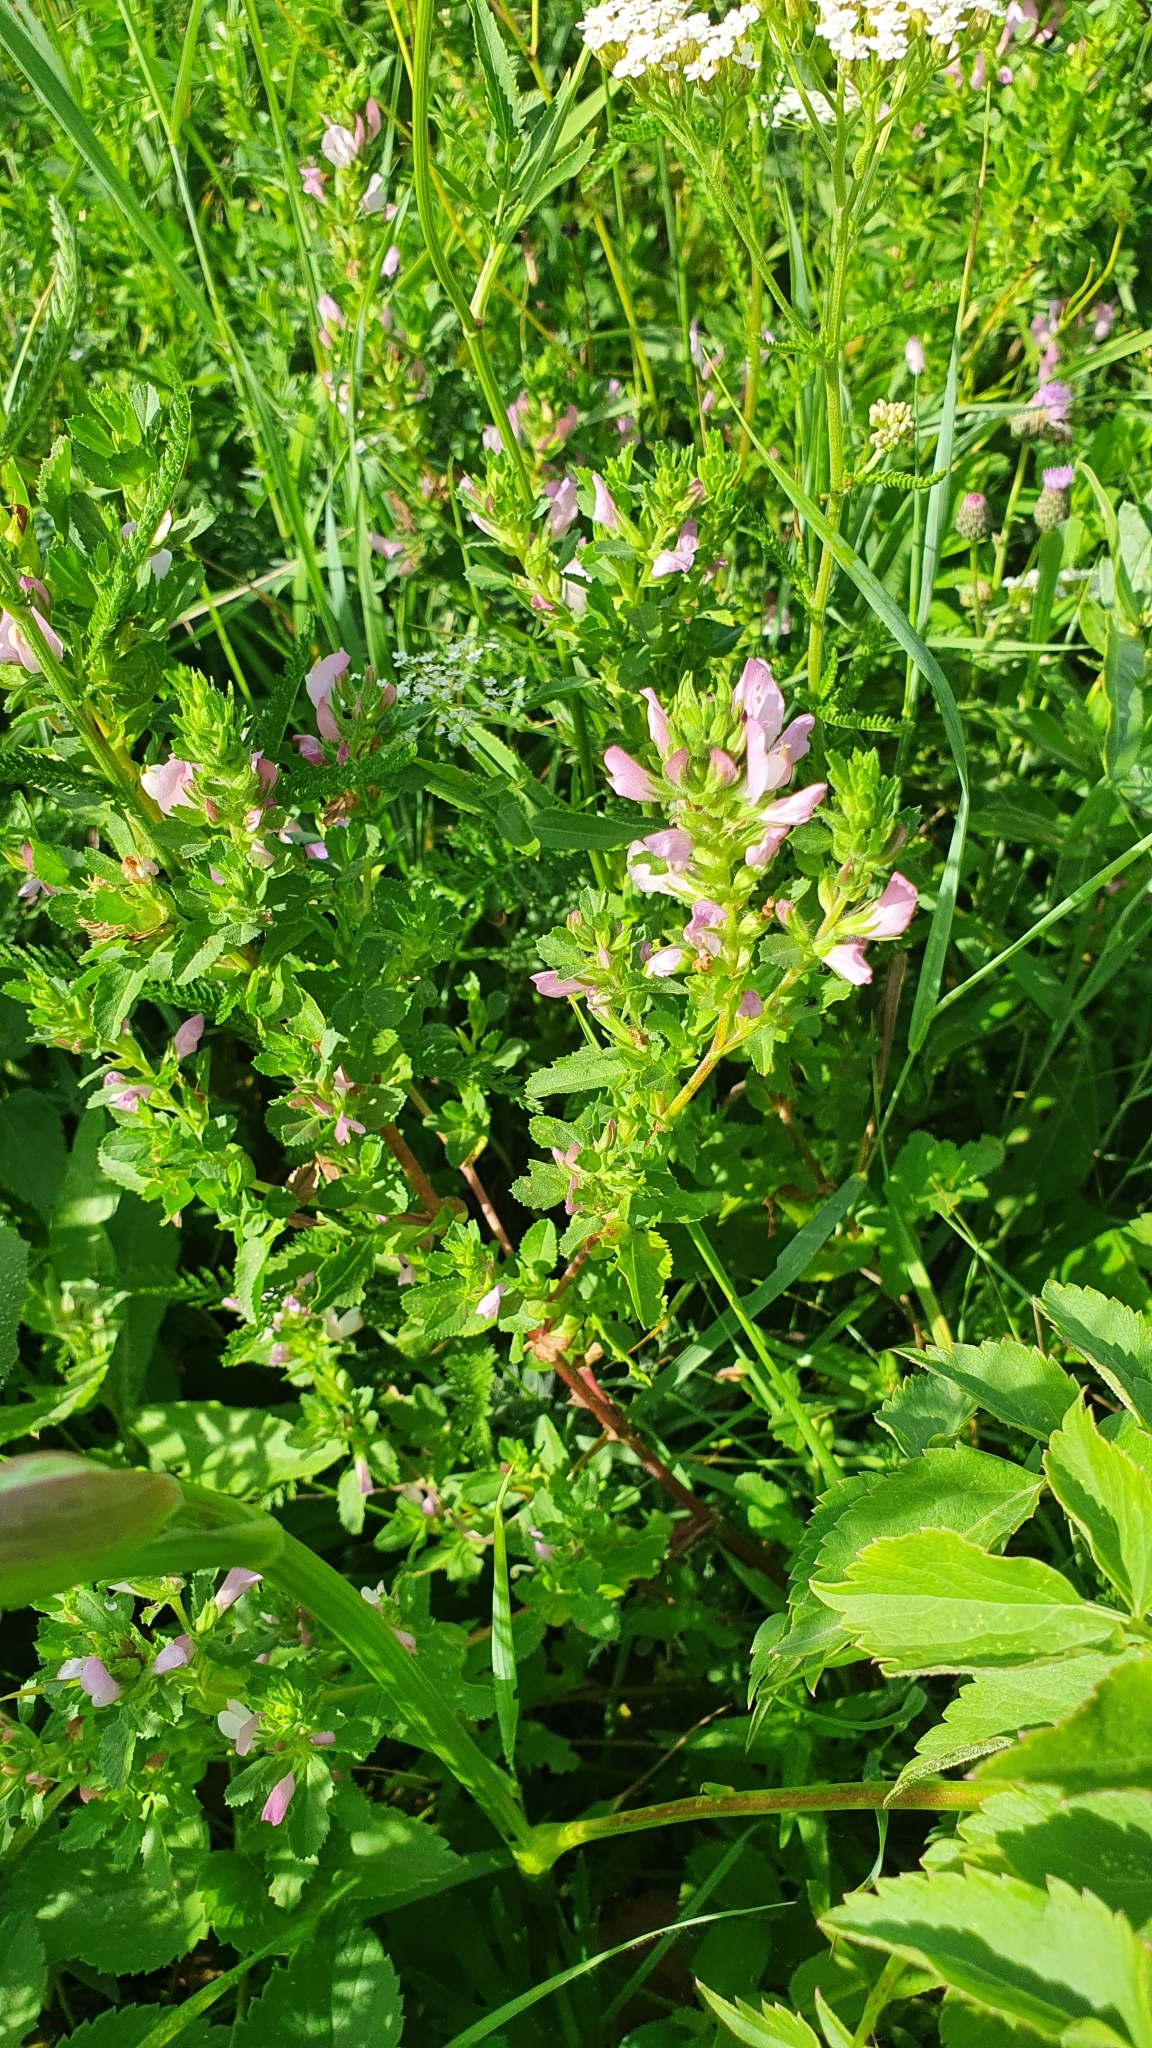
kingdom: Plantae
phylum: Tracheophyta
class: Magnoliopsida
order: Fabales
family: Fabaceae
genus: Ononis
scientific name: Ononis arvensis
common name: Field restharrow
